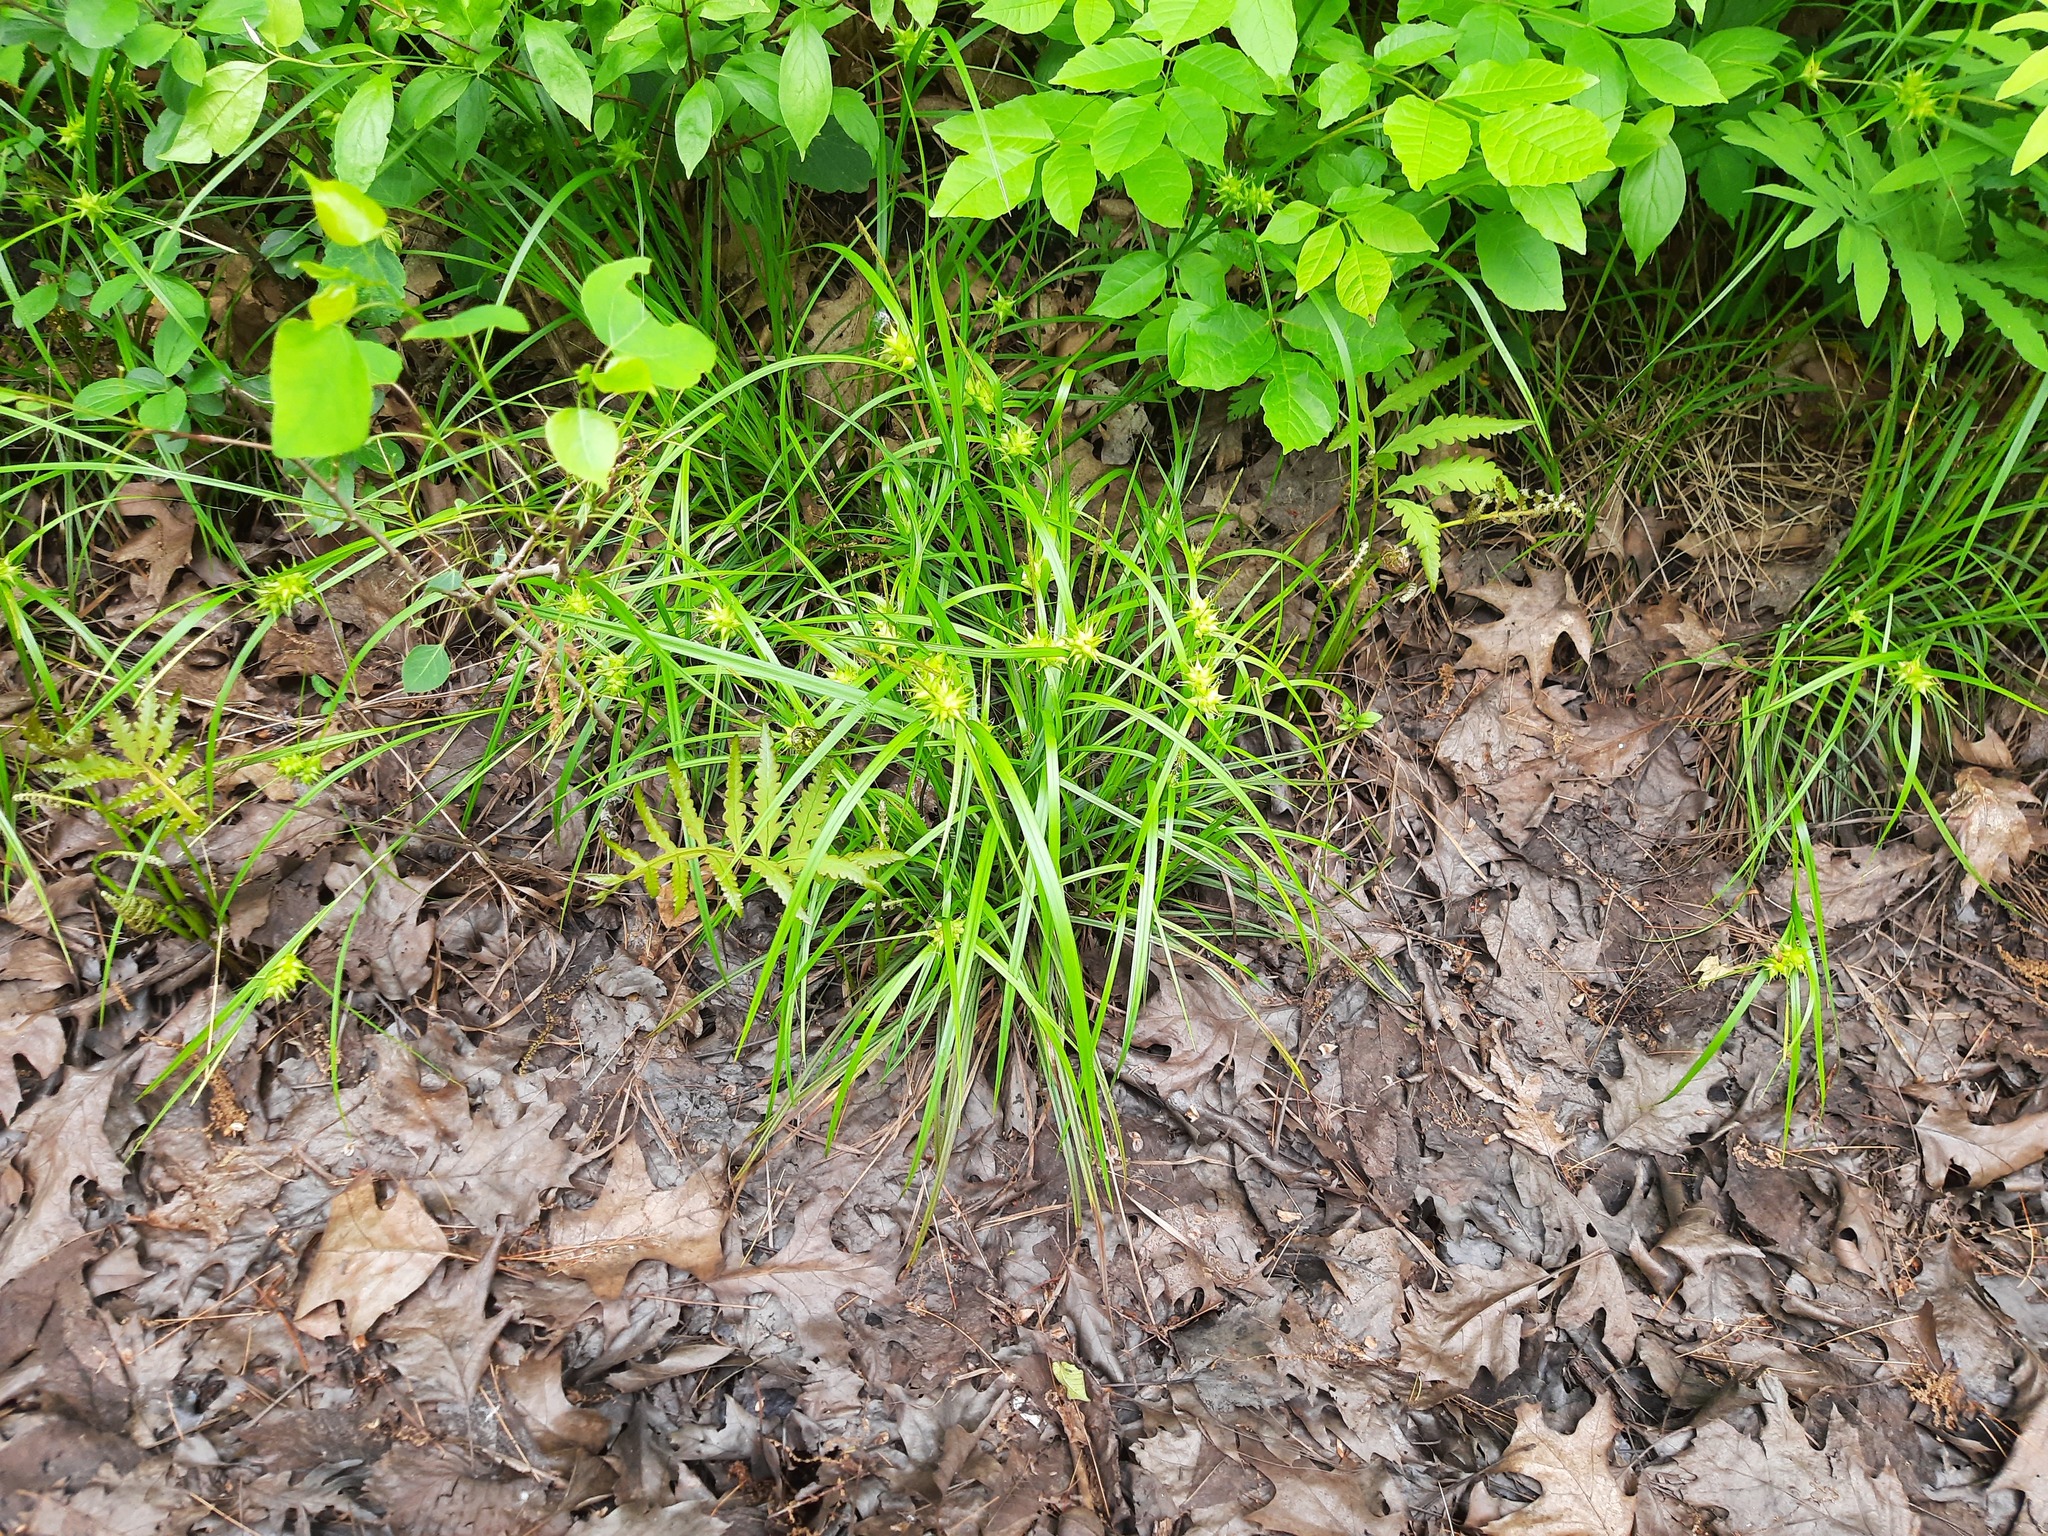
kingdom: Plantae
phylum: Tracheophyta
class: Liliopsida
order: Poales
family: Cyperaceae
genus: Carex
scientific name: Carex intumescens
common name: Greater bladder sedge
